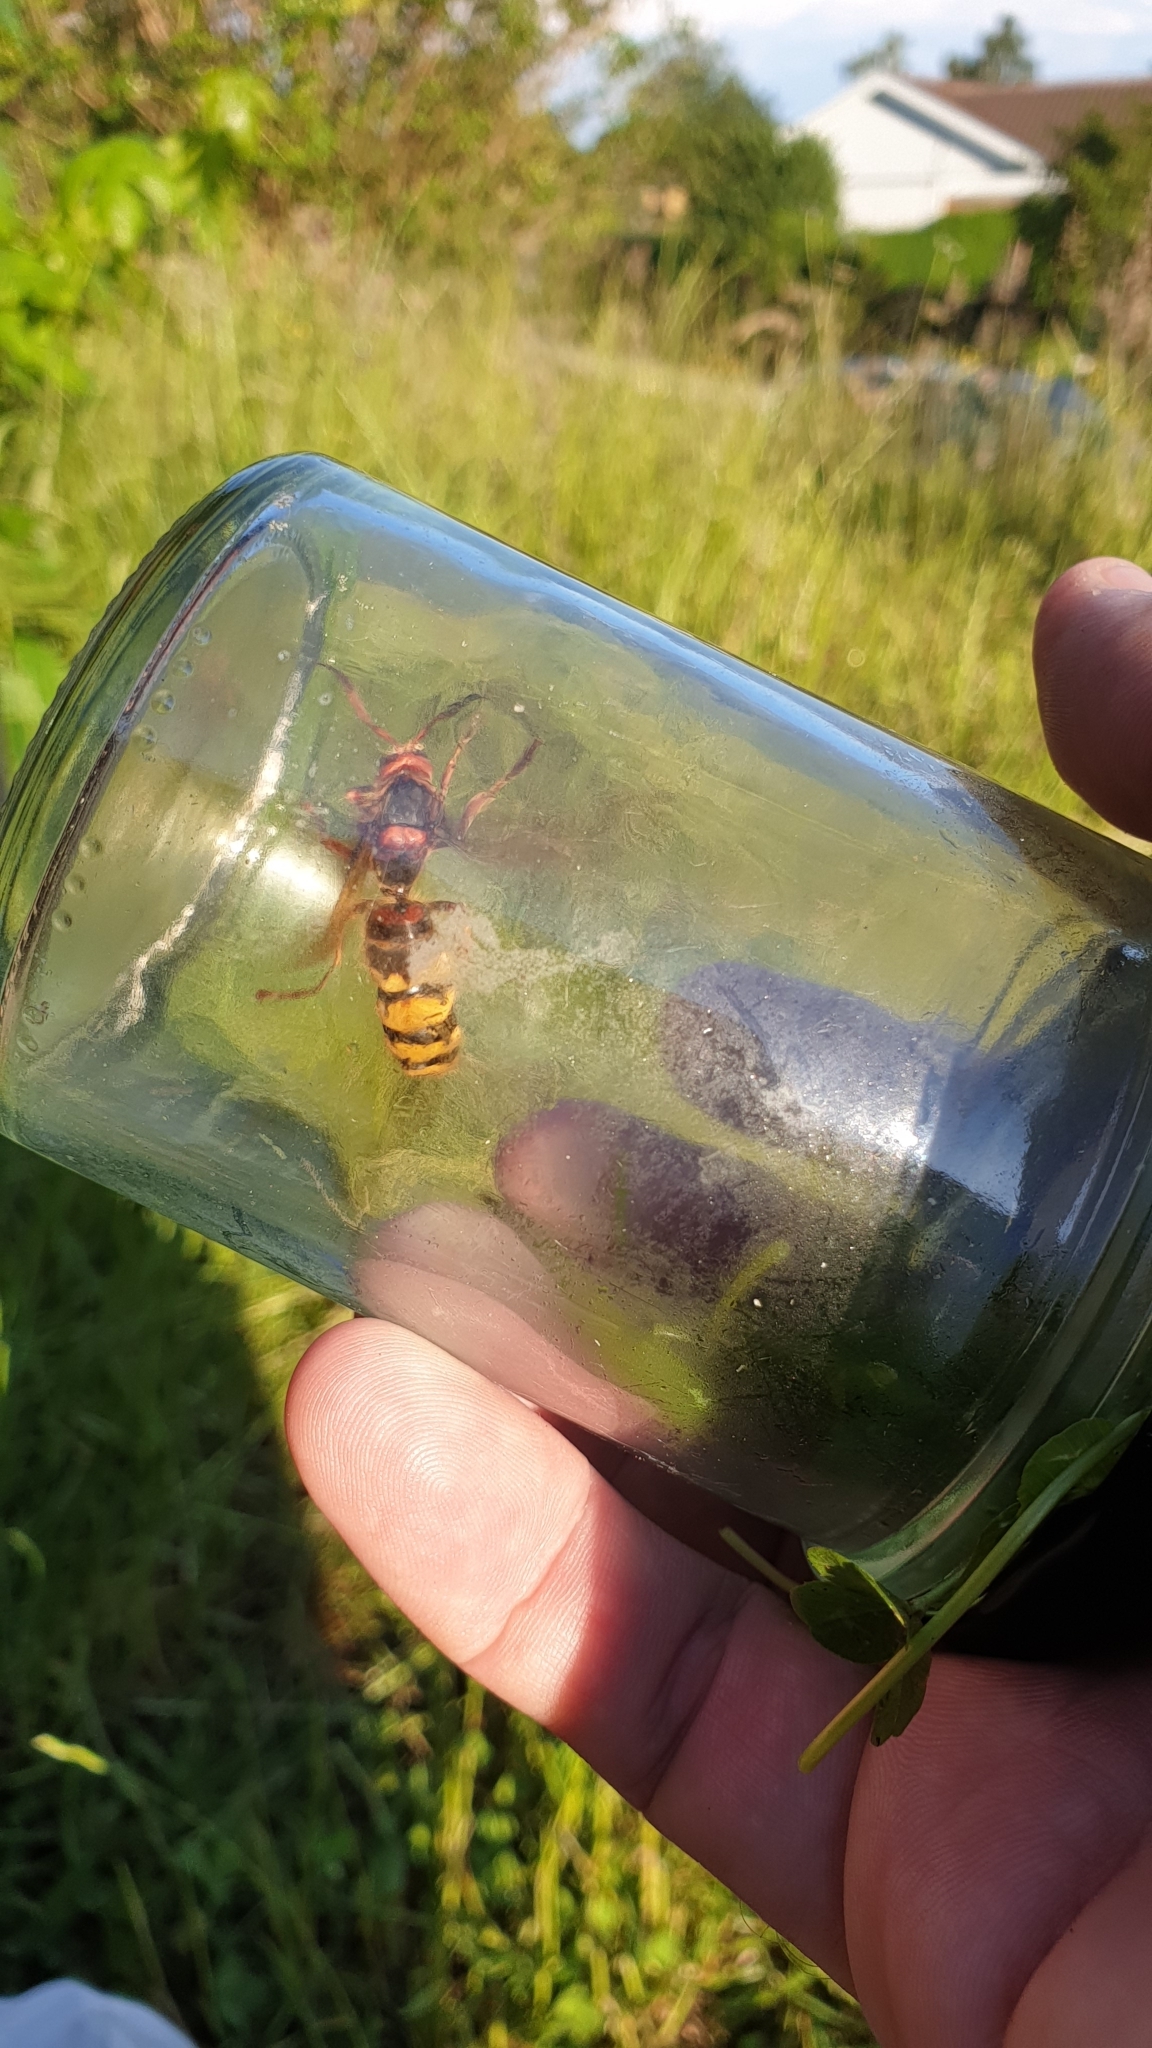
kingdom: Animalia
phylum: Arthropoda
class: Insecta
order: Hymenoptera
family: Vespidae
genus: Vespa
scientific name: Vespa crabro
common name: Hornet
